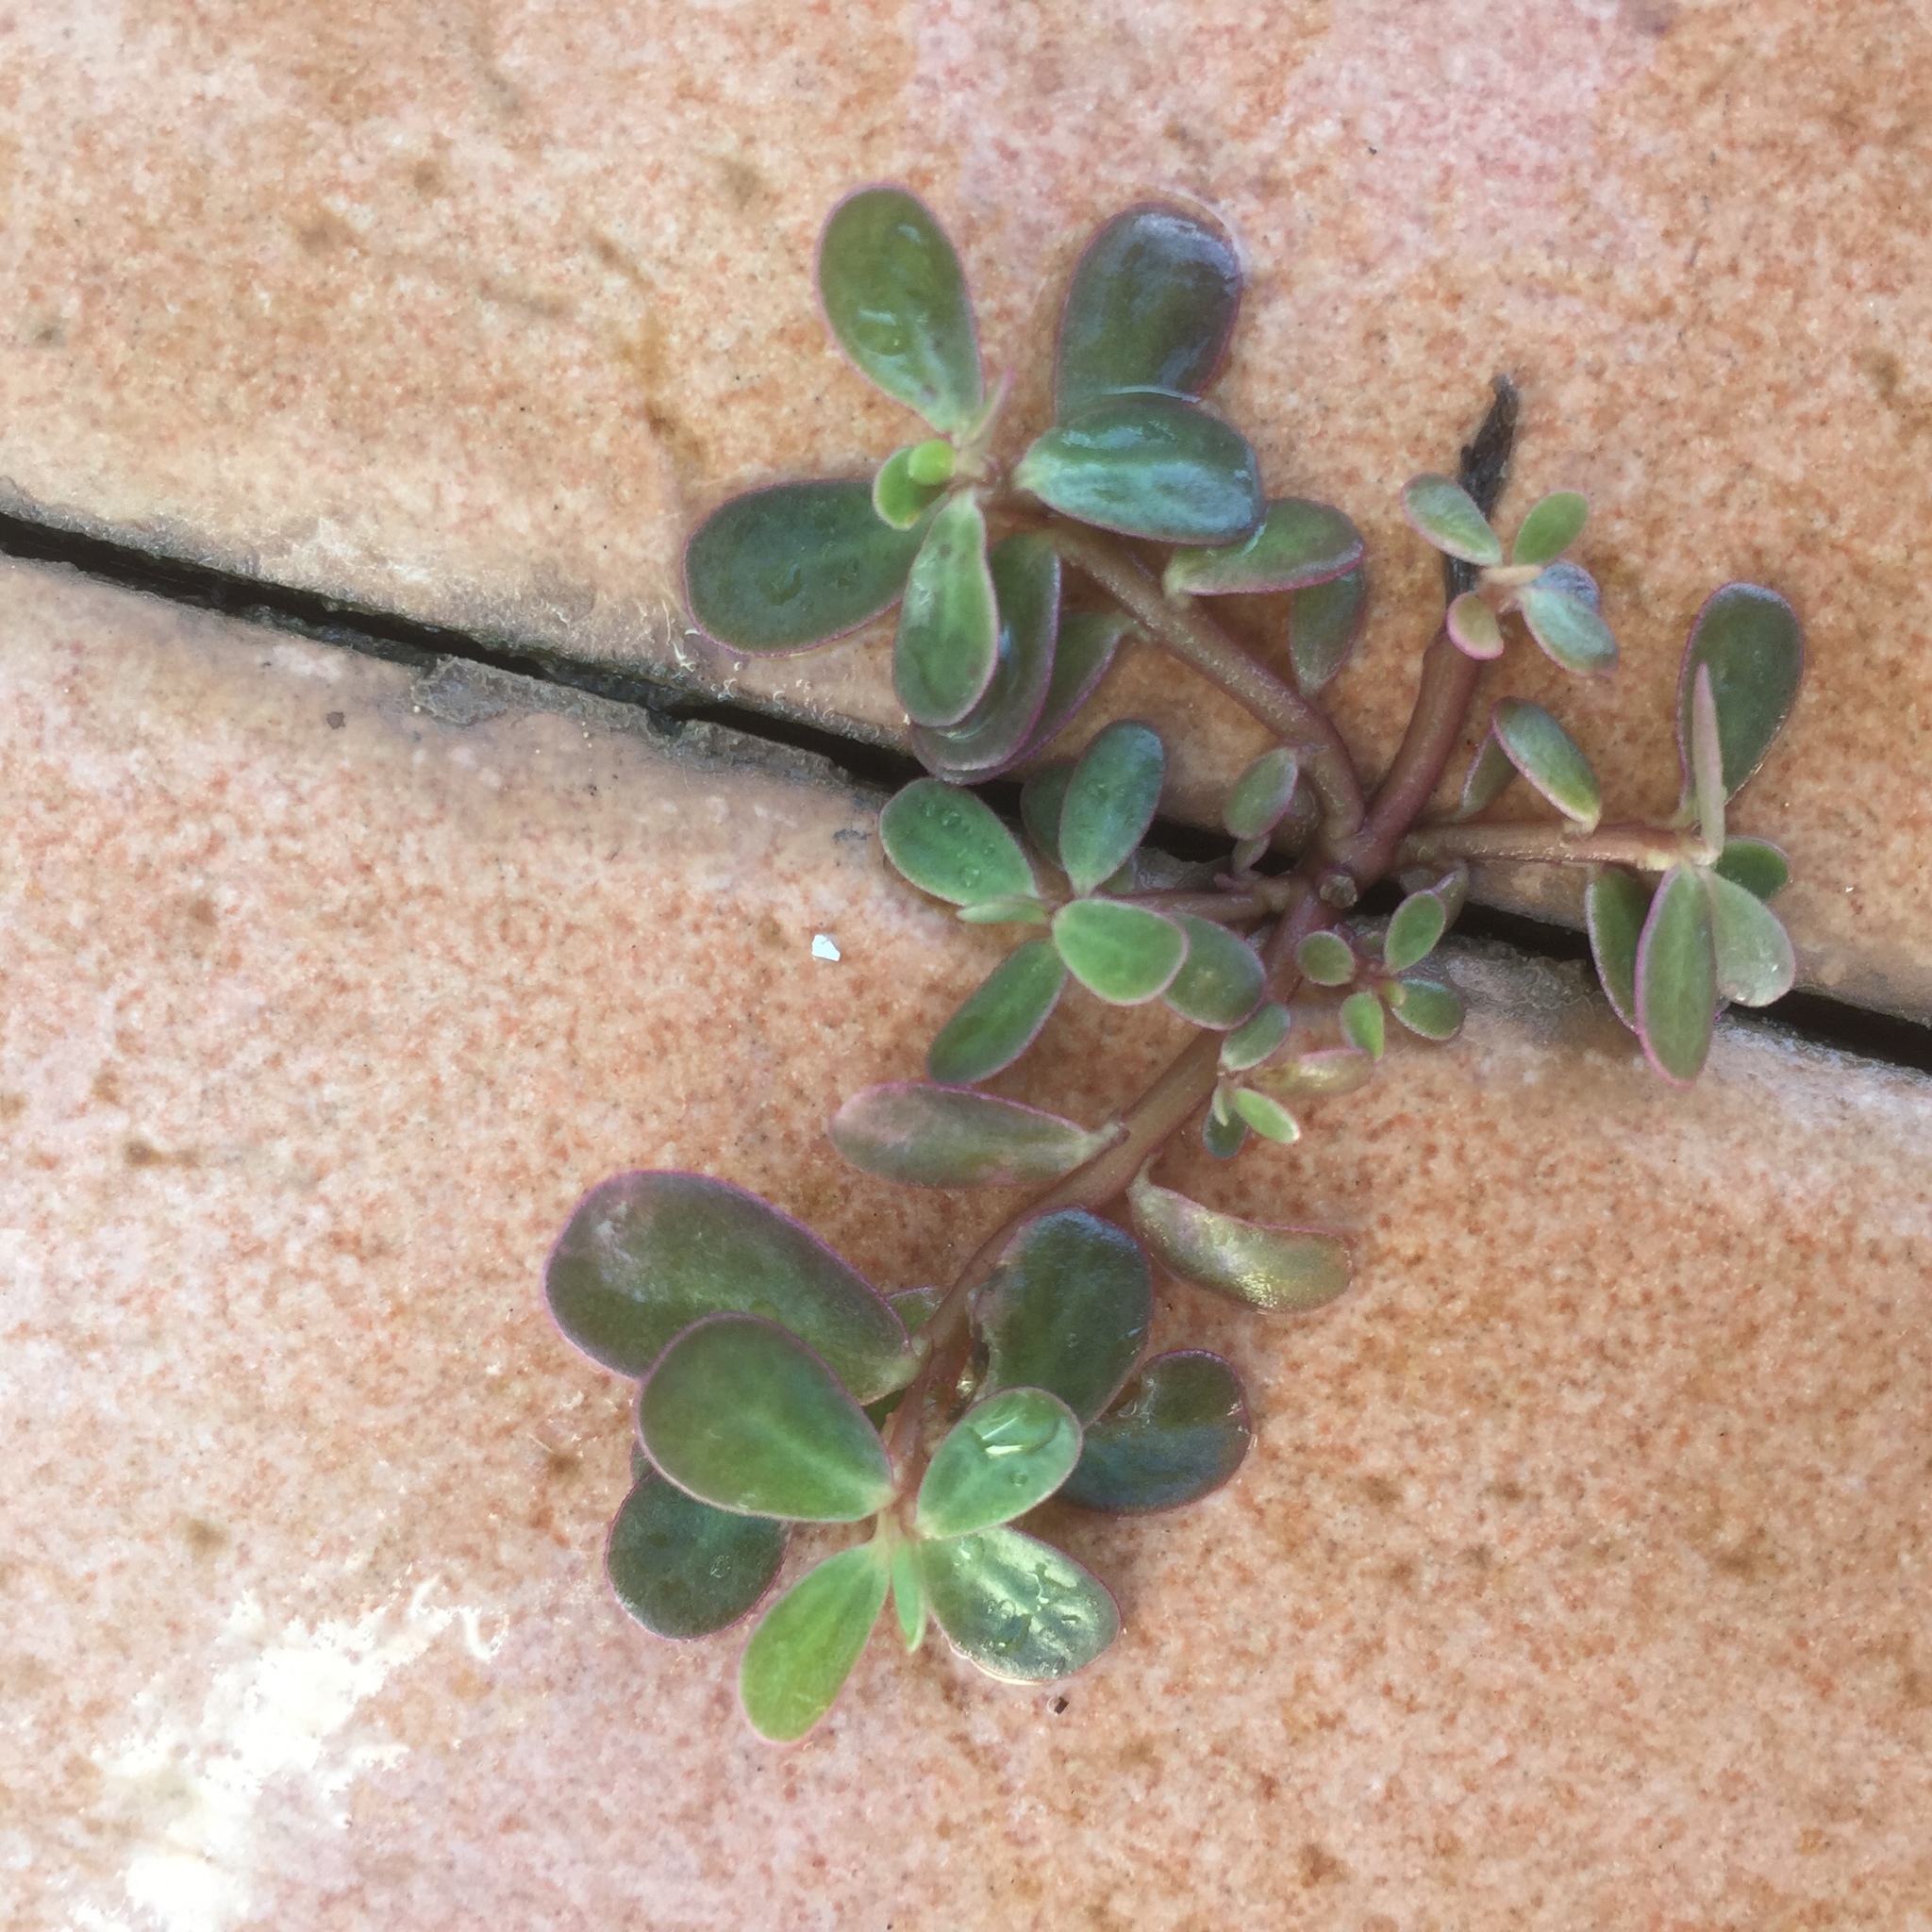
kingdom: Plantae
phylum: Tracheophyta
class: Magnoliopsida
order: Caryophyllales
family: Portulacaceae
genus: Portulaca
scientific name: Portulaca oleracea
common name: Common purslane
